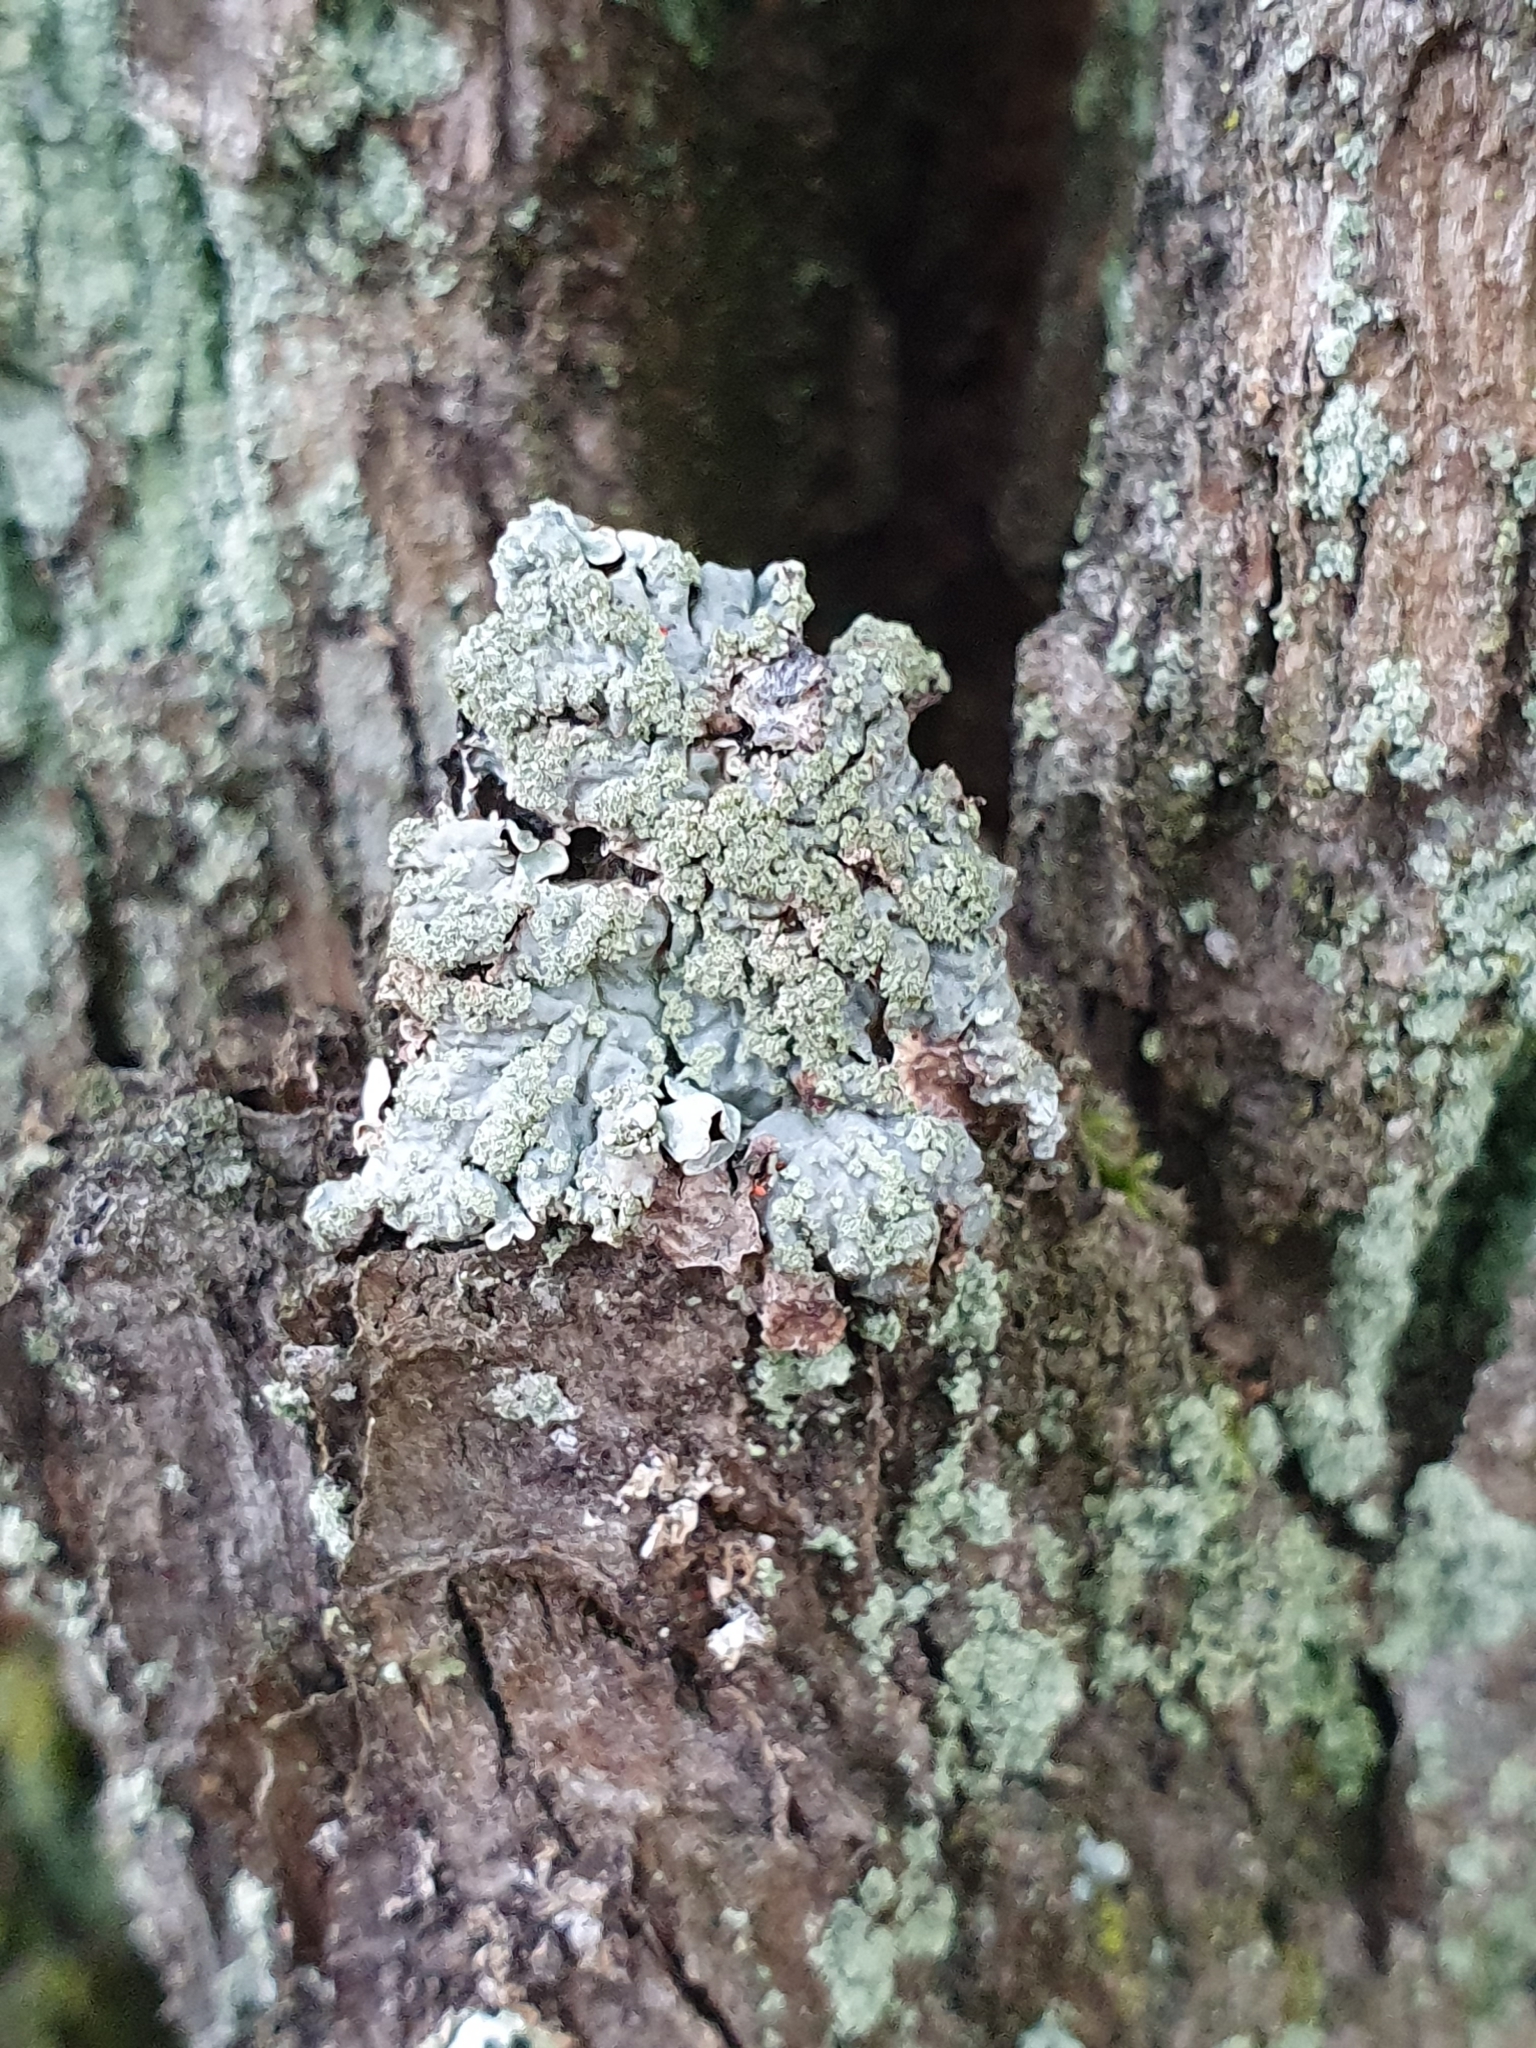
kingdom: Fungi
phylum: Ascomycota
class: Lecanoromycetes
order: Lecanorales
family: Parmeliaceae
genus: Parmelia
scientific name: Parmelia sulcata
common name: Netted shield lichen
